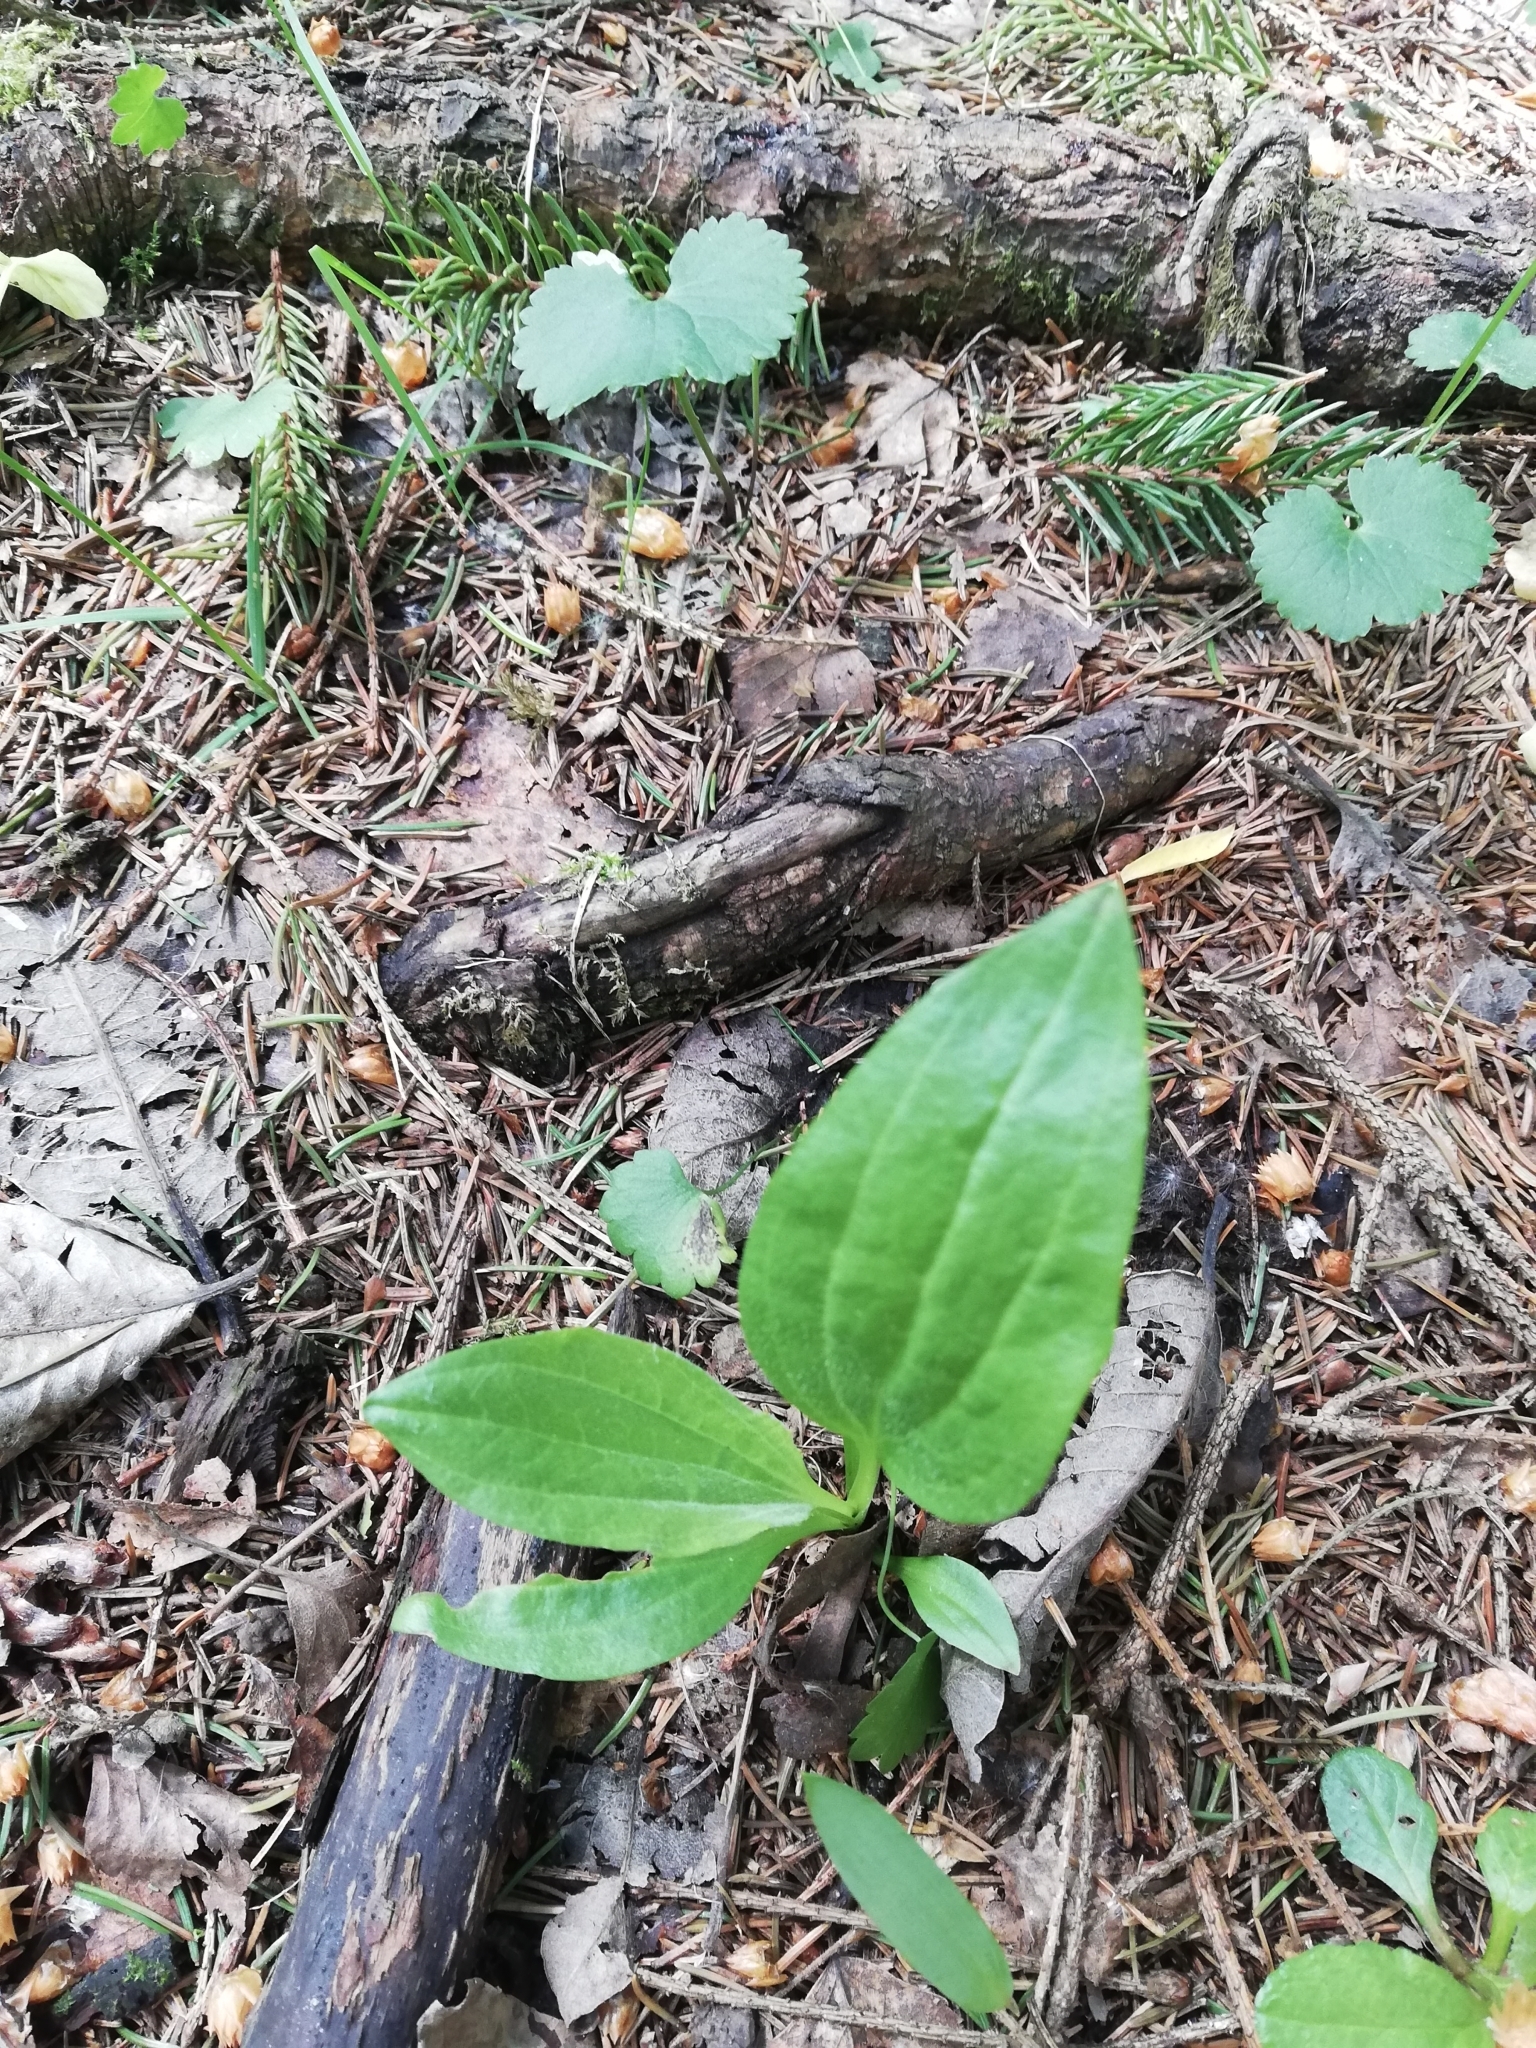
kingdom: Plantae
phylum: Tracheophyta
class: Magnoliopsida
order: Lamiales
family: Plantaginaceae
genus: Plantago
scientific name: Plantago media
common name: Hoary plantain
